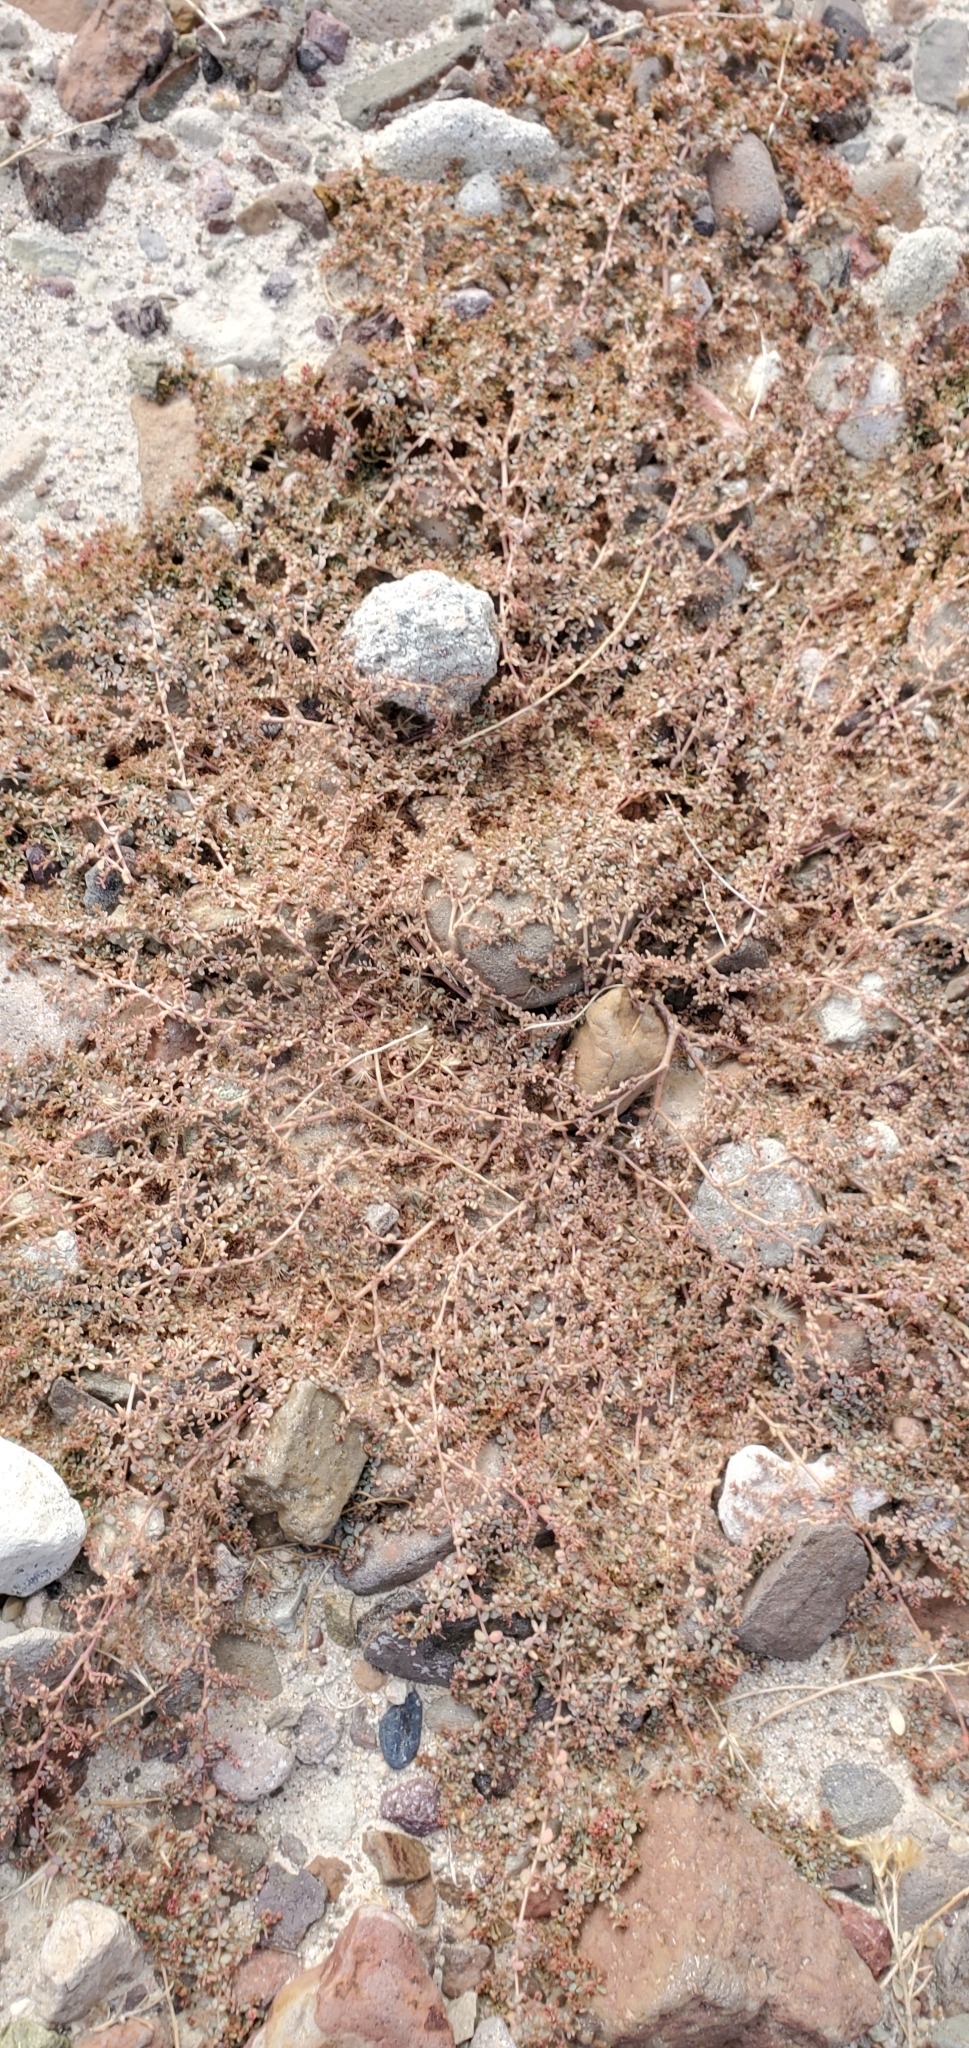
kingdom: Plantae
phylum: Tracheophyta
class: Magnoliopsida
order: Malpighiales
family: Euphorbiaceae
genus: Euphorbia
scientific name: Euphorbia micromera
